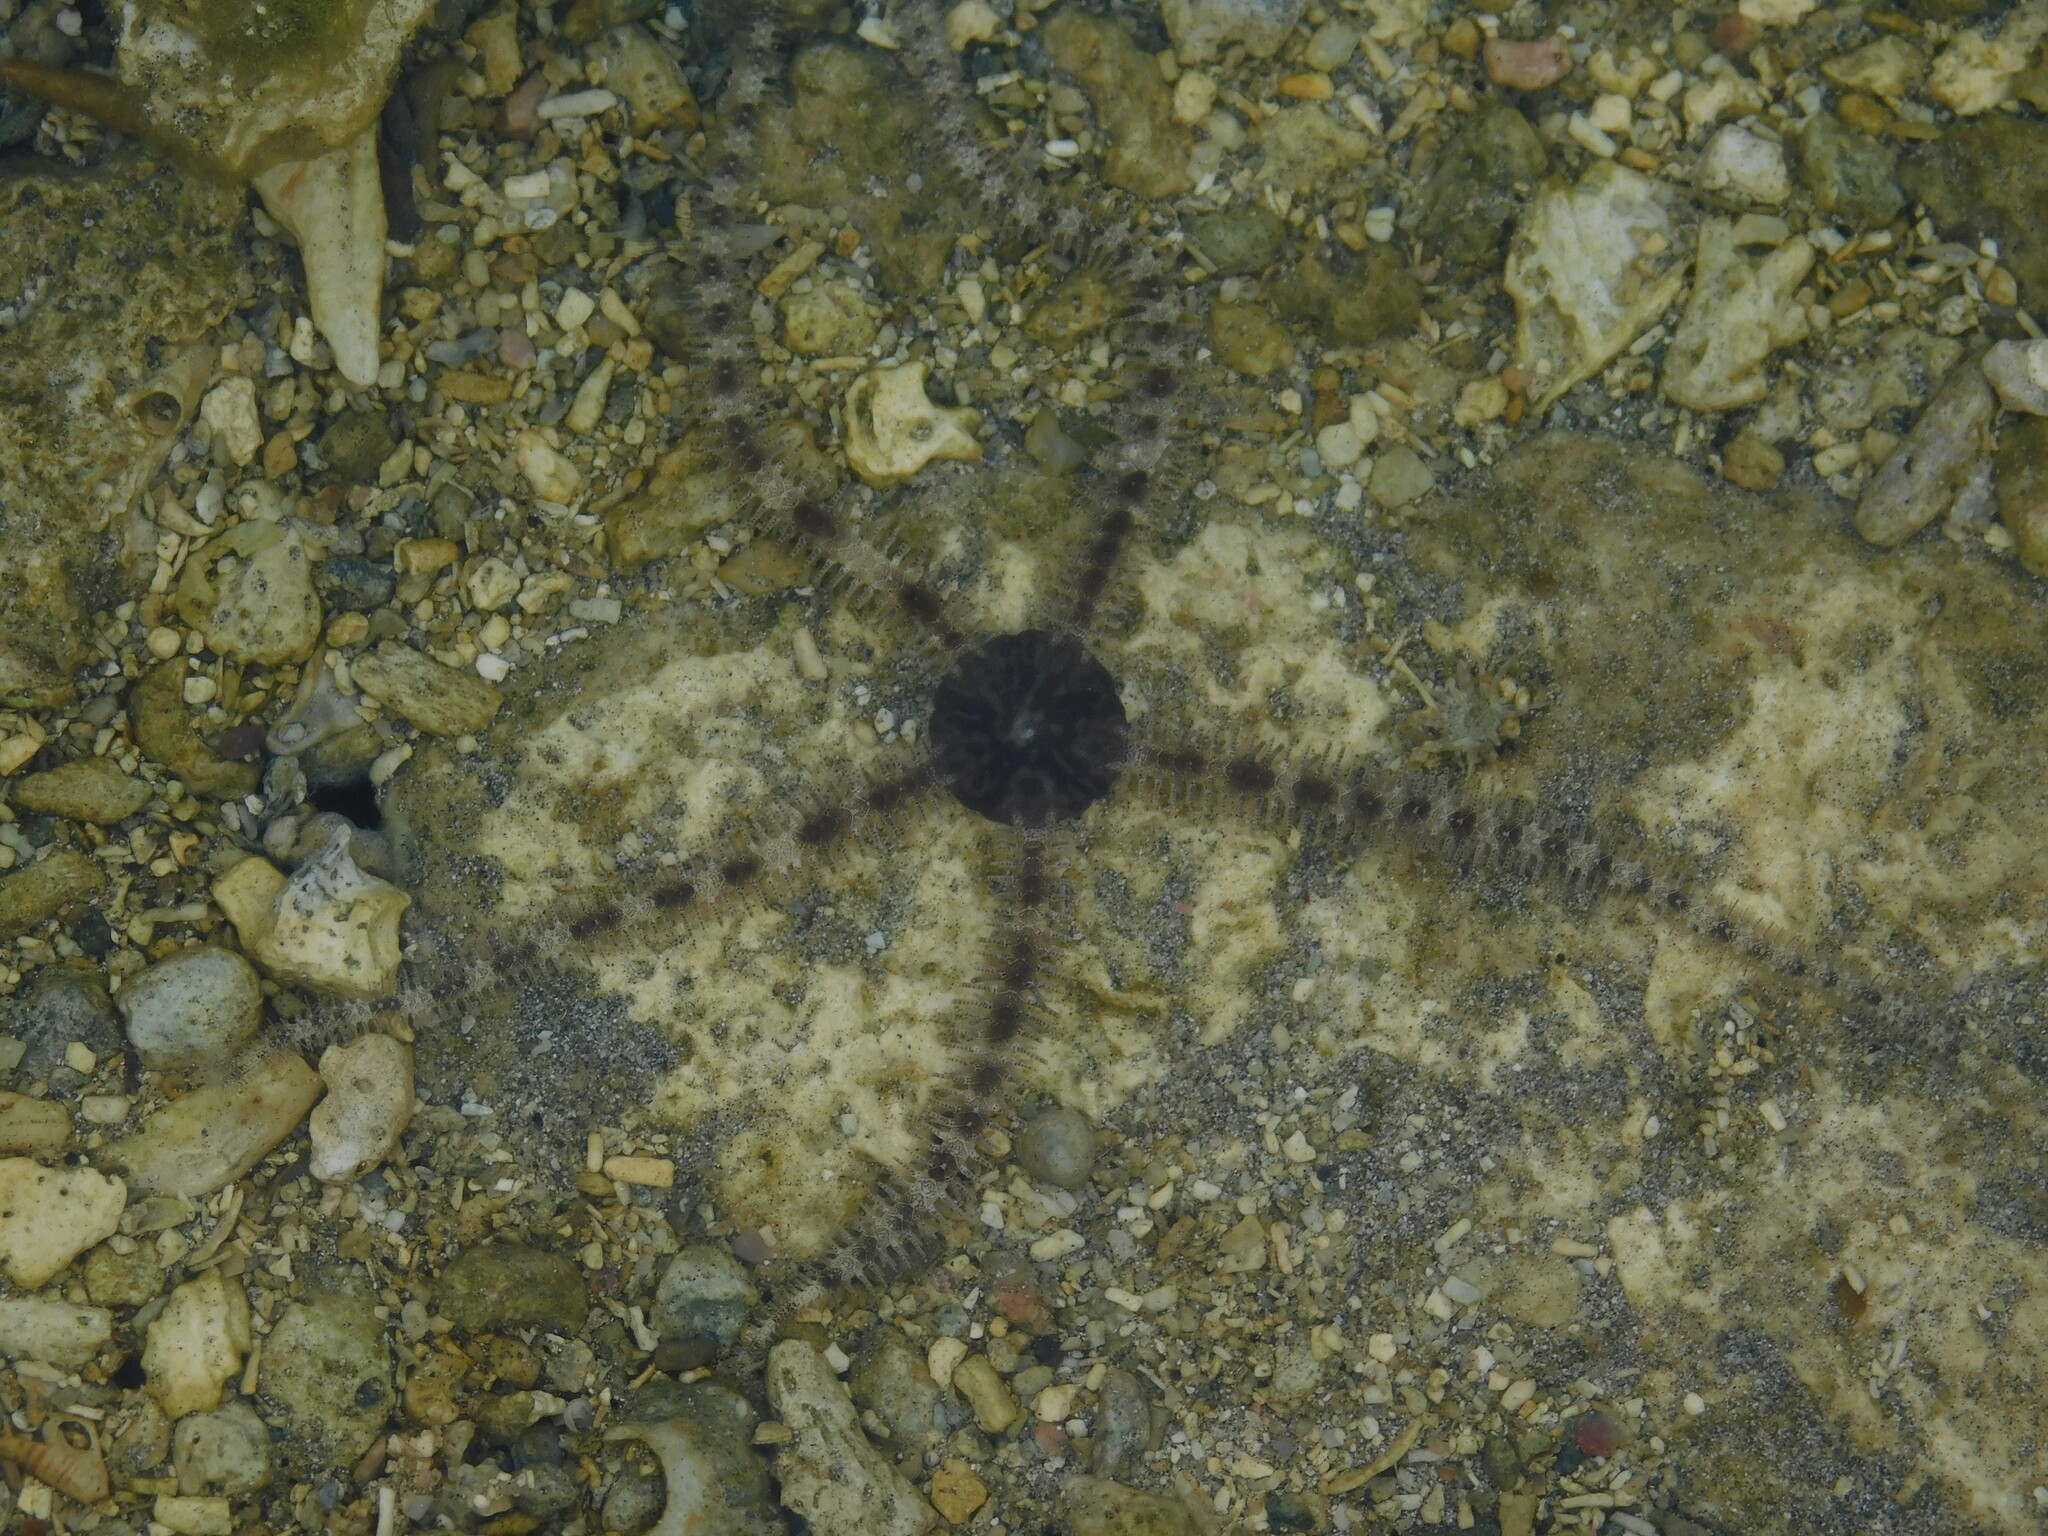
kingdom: Animalia
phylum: Echinodermata
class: Ophiuroidea
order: Ophiacanthida
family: Ophiocomidae
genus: Ophiocoma
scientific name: Ophiocoma scolopendrina
